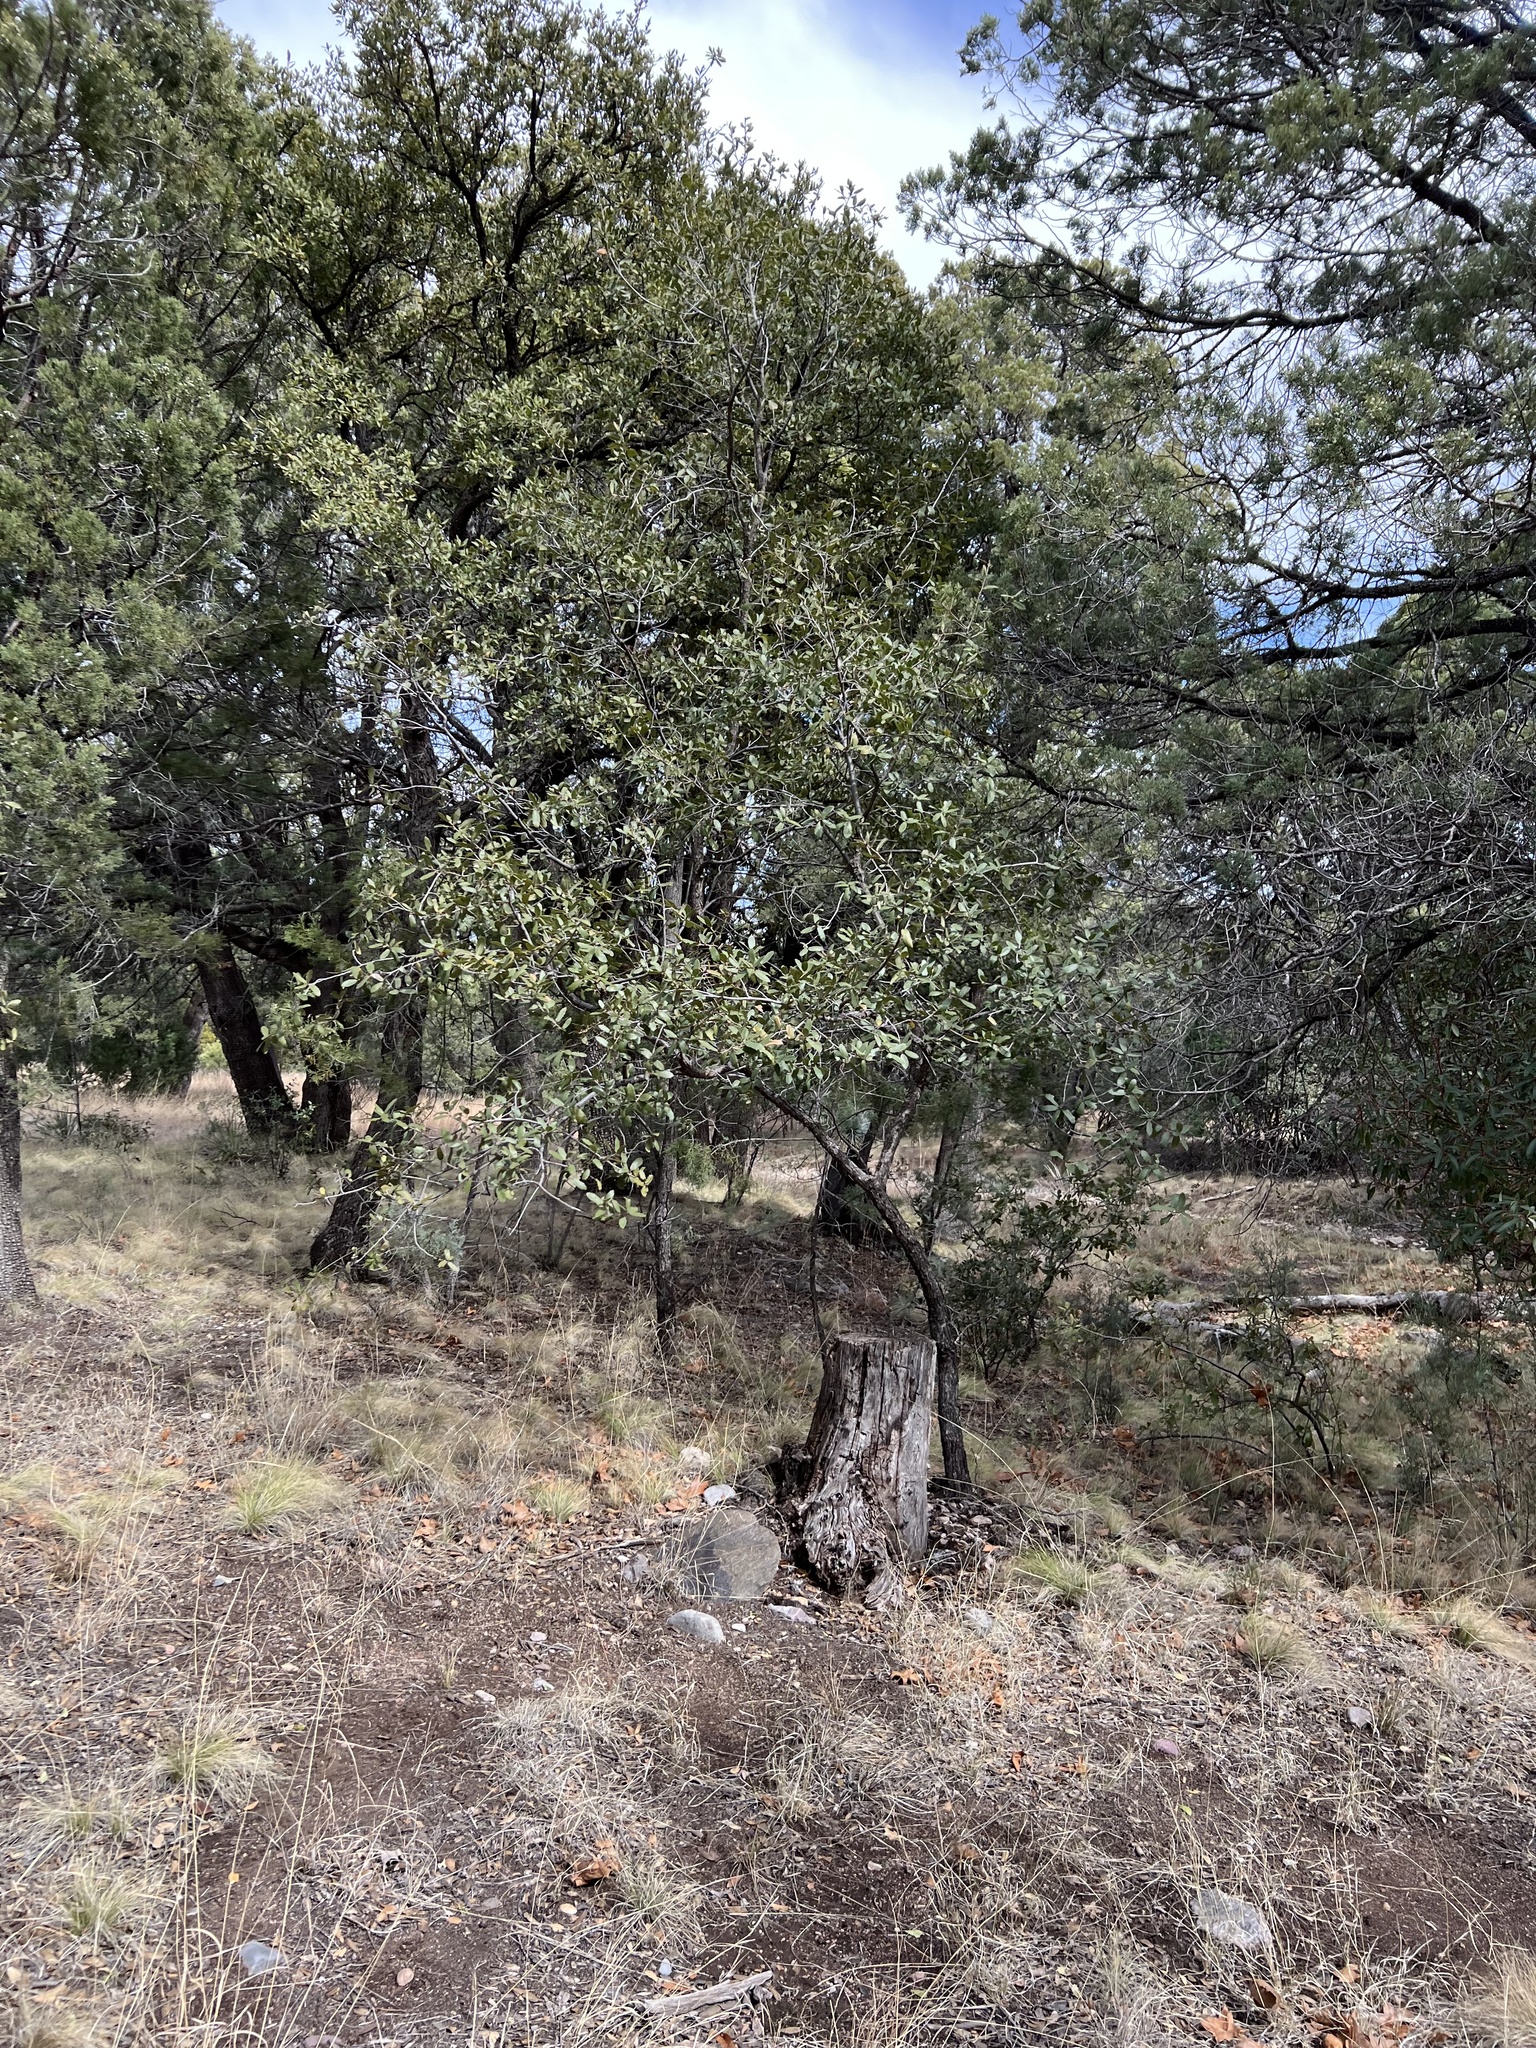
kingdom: Plantae
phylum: Tracheophyta
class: Magnoliopsida
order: Fagales
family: Fagaceae
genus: Quercus
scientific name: Quercus arizonica
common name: Arizona white oak
